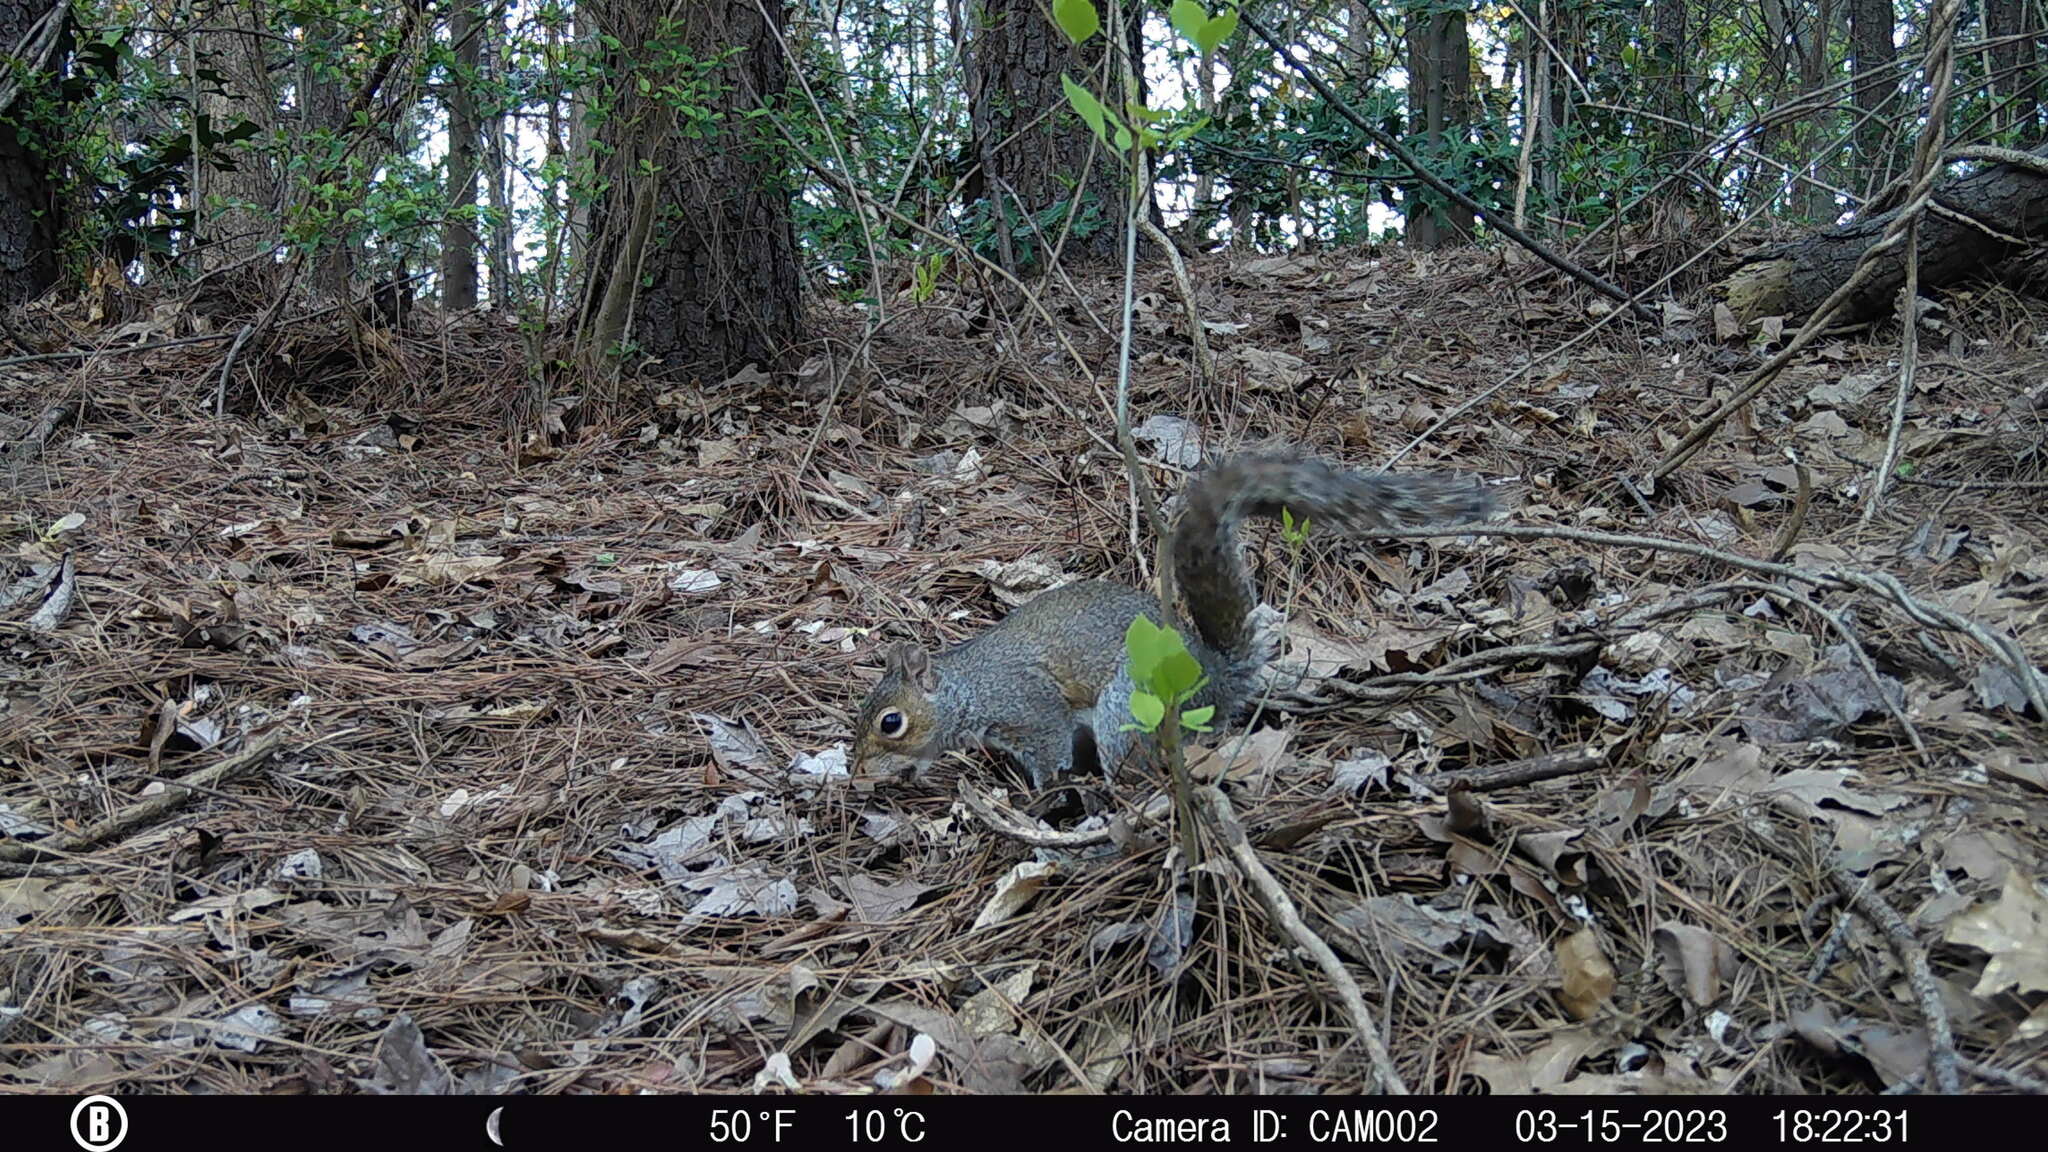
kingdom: Animalia
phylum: Chordata
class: Mammalia
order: Rodentia
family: Sciuridae
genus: Sciurus
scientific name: Sciurus carolinensis
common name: Eastern gray squirrel
